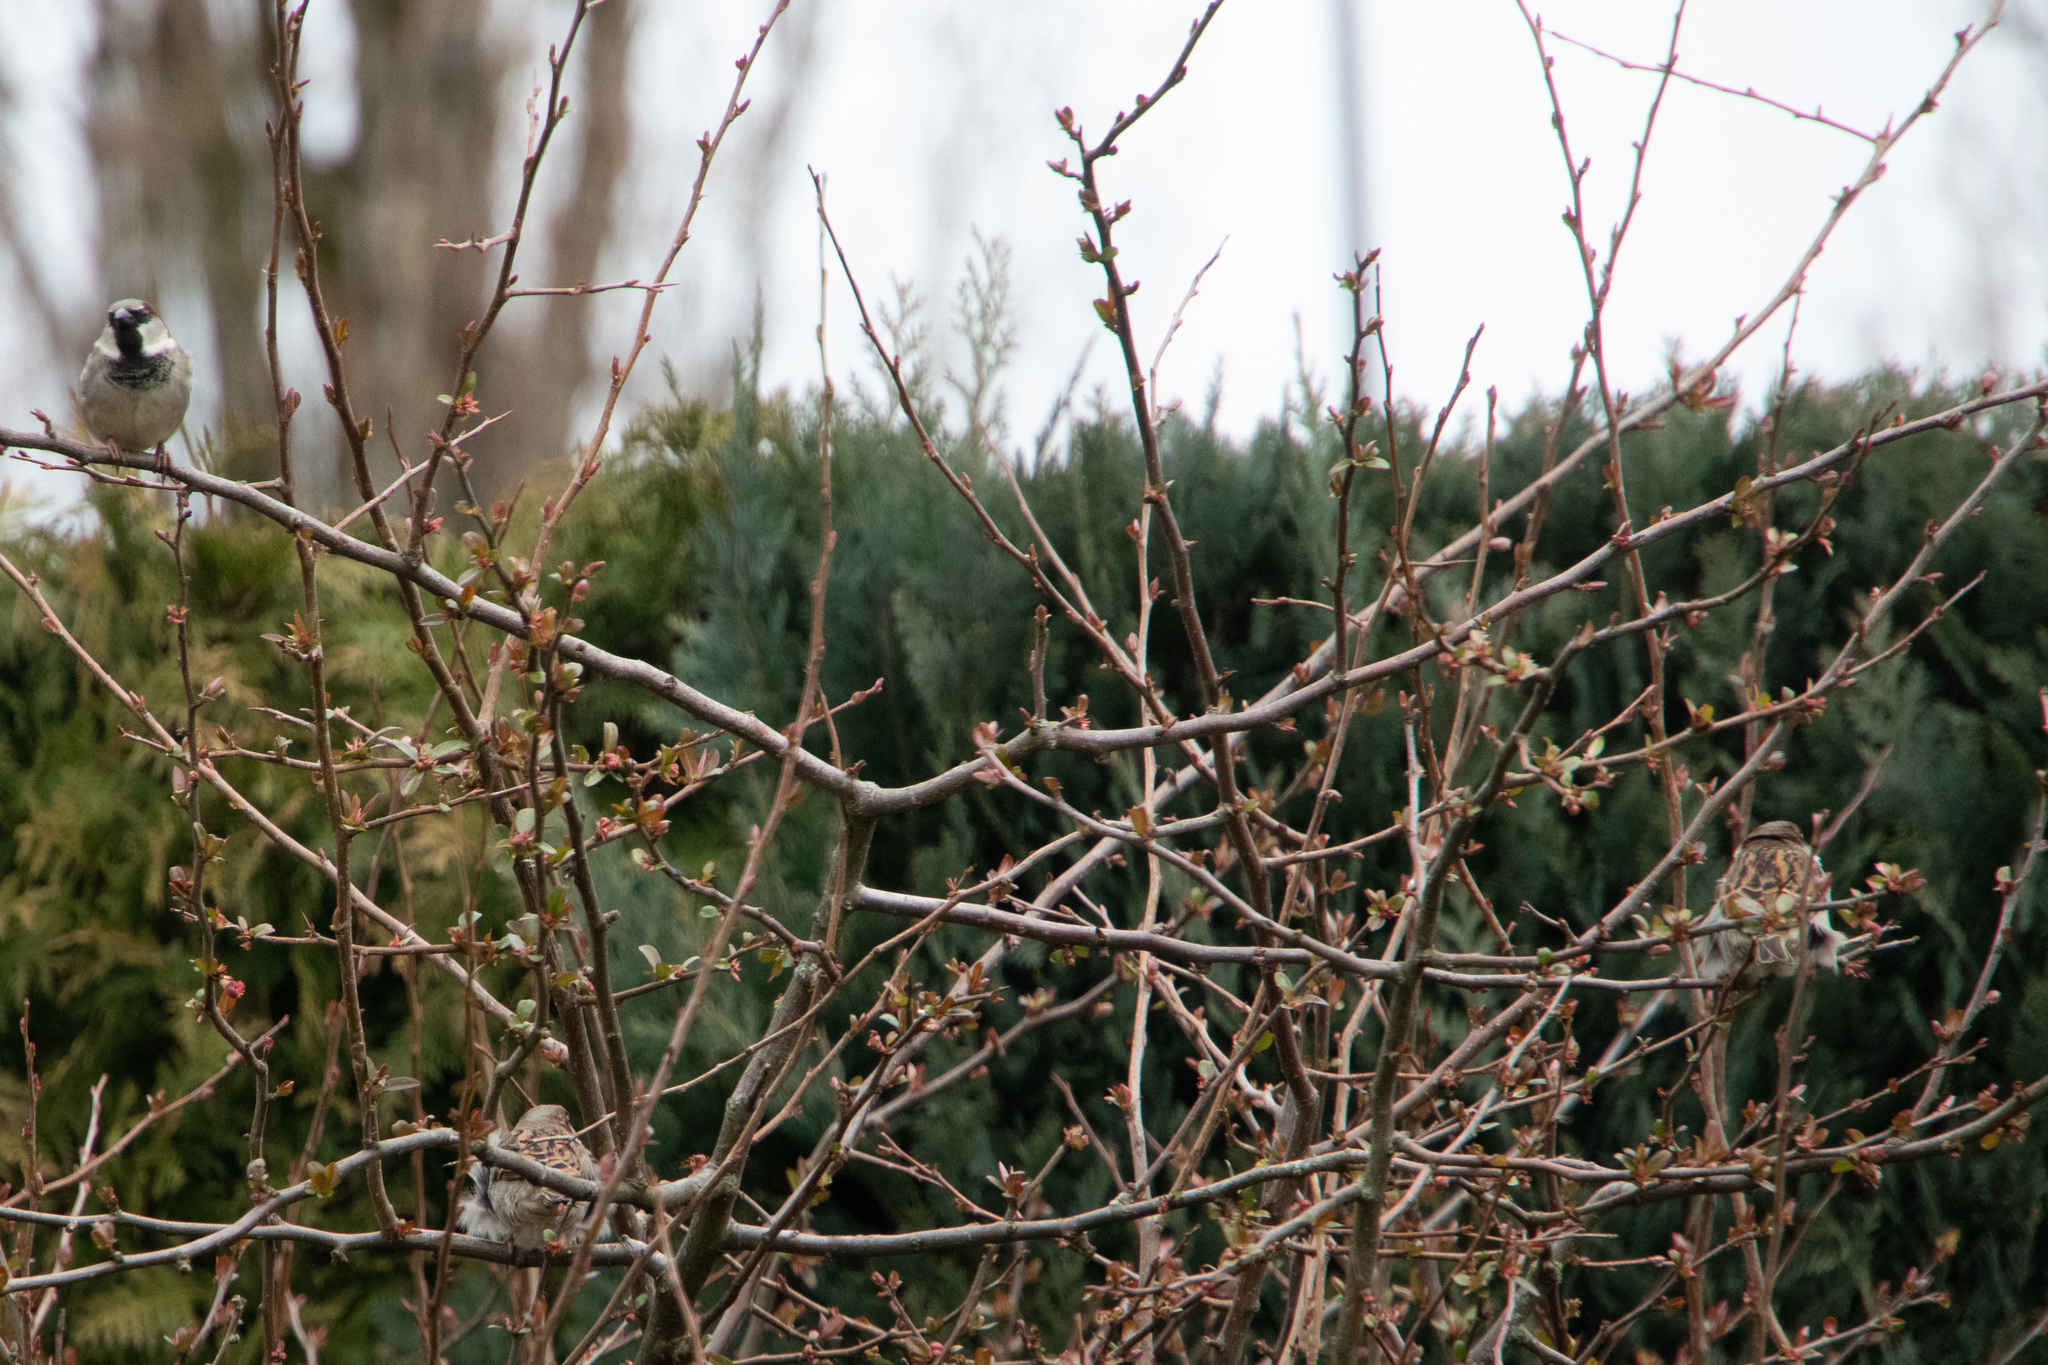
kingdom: Animalia
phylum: Chordata
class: Aves
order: Passeriformes
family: Passeridae
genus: Passer
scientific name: Passer domesticus
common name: House sparrow
